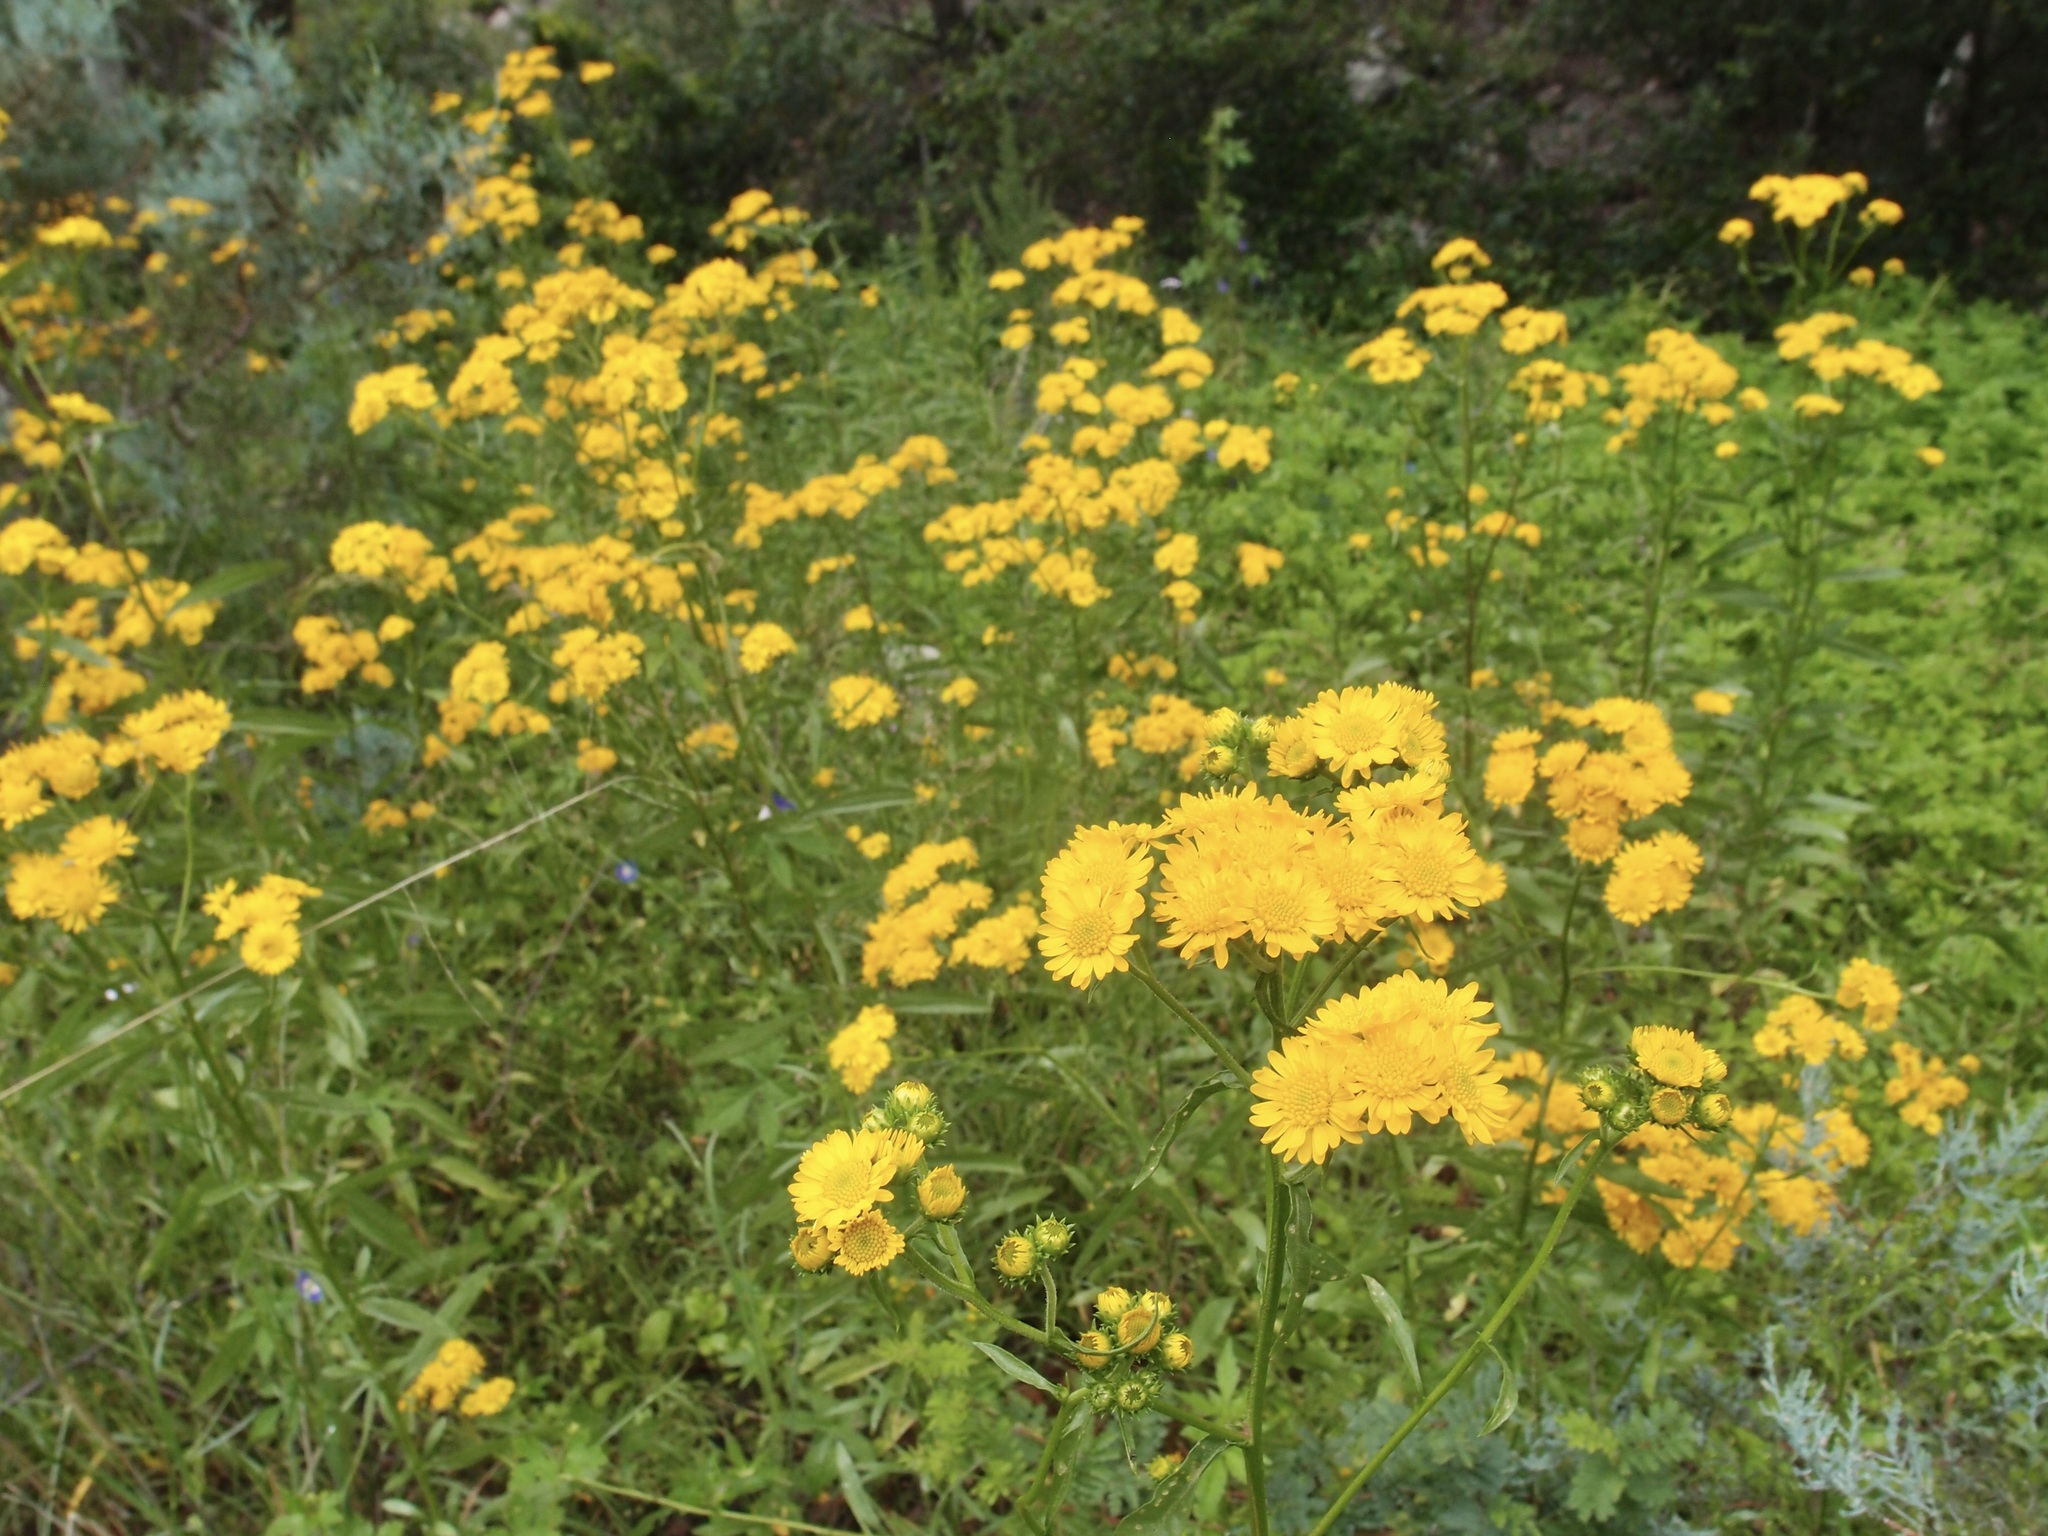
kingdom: Plantae
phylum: Tracheophyta
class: Magnoliopsida
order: Asterales
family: Asteraceae
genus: Xanthocephalum
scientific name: Xanthocephalum gymnospermoides
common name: San pedro matchweed
